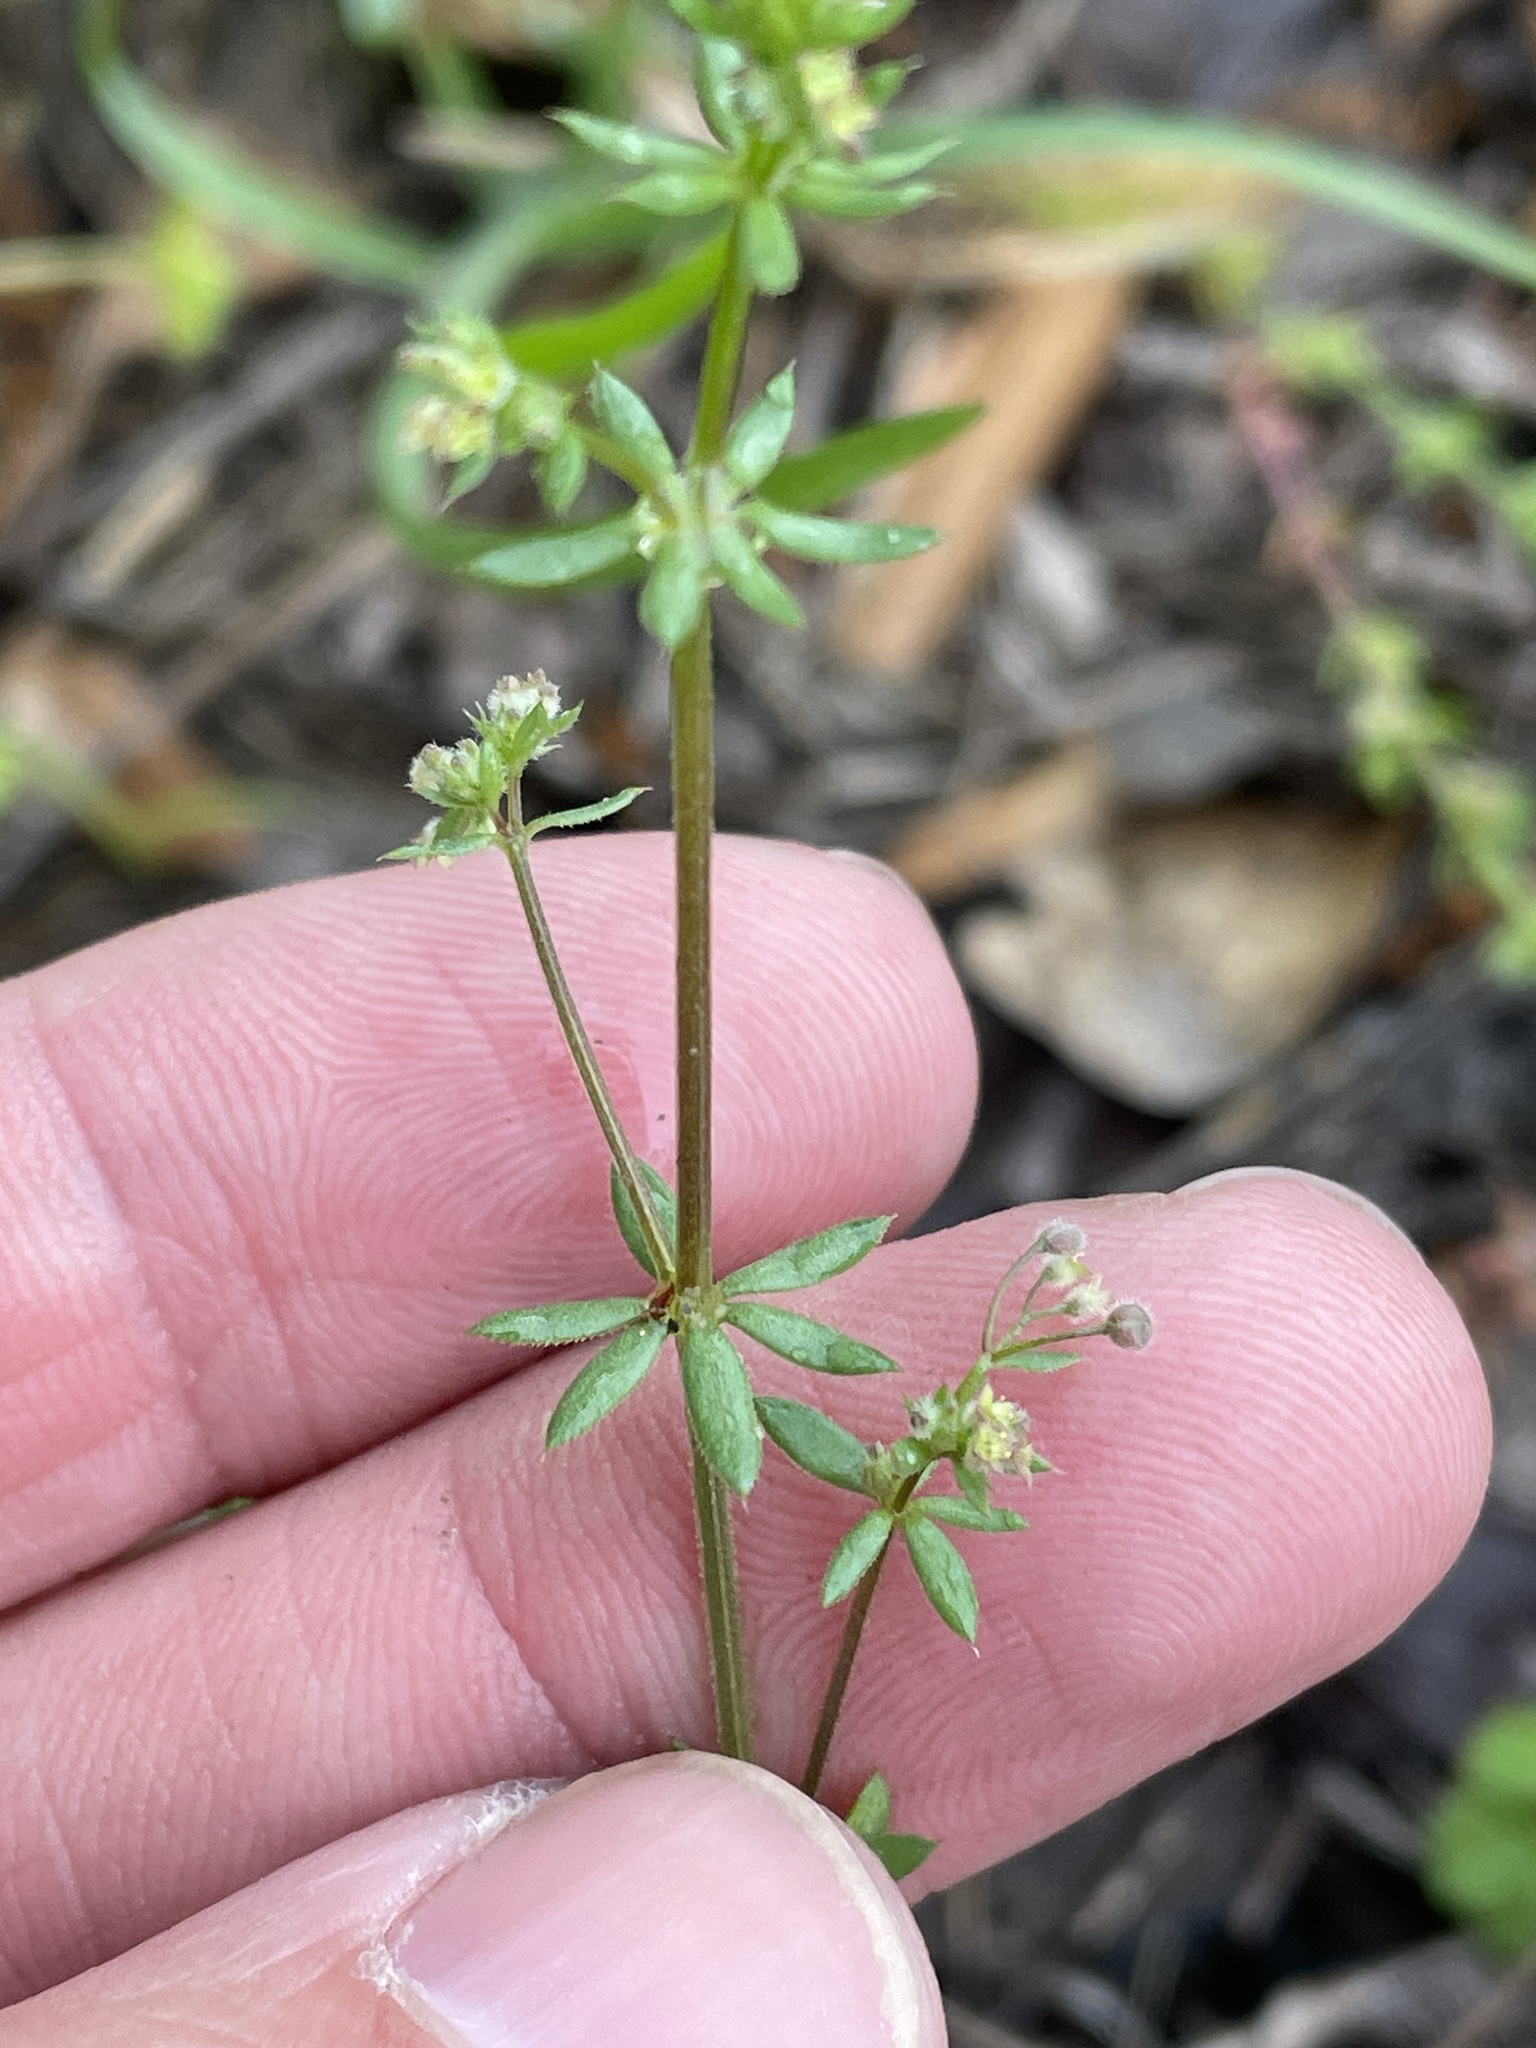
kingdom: Plantae
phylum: Tracheophyta
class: Magnoliopsida
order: Gentianales
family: Rubiaceae
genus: Galium
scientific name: Galium parisiense
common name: Wall bedstraw
